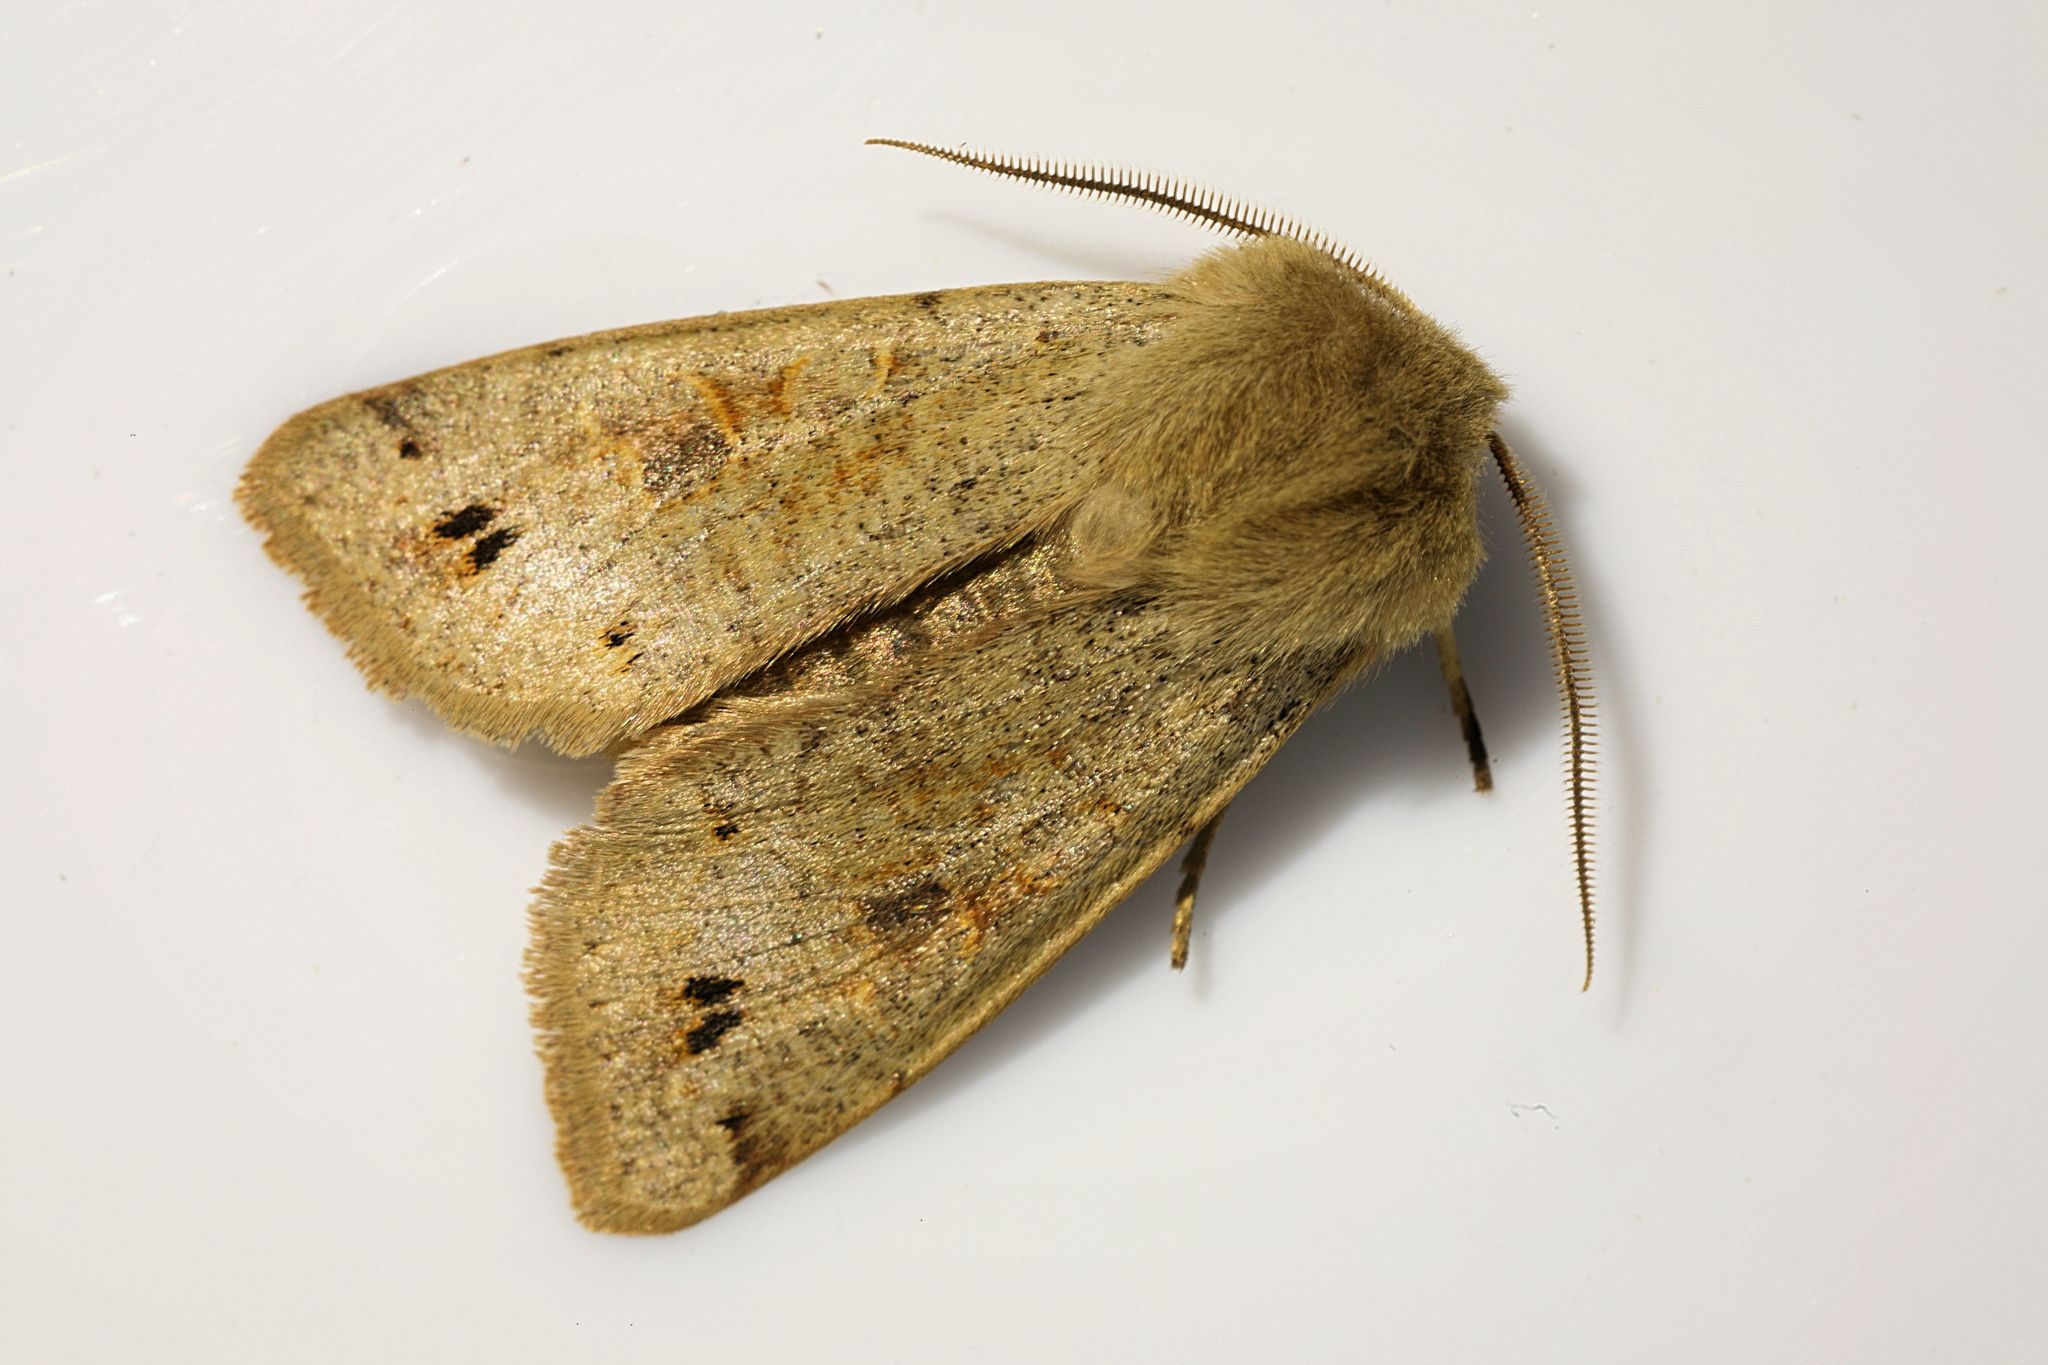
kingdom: Animalia
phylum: Arthropoda
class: Insecta
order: Lepidoptera
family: Noctuidae
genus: Anorthoa
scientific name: Anorthoa munda
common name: Twin-spotted quaker
